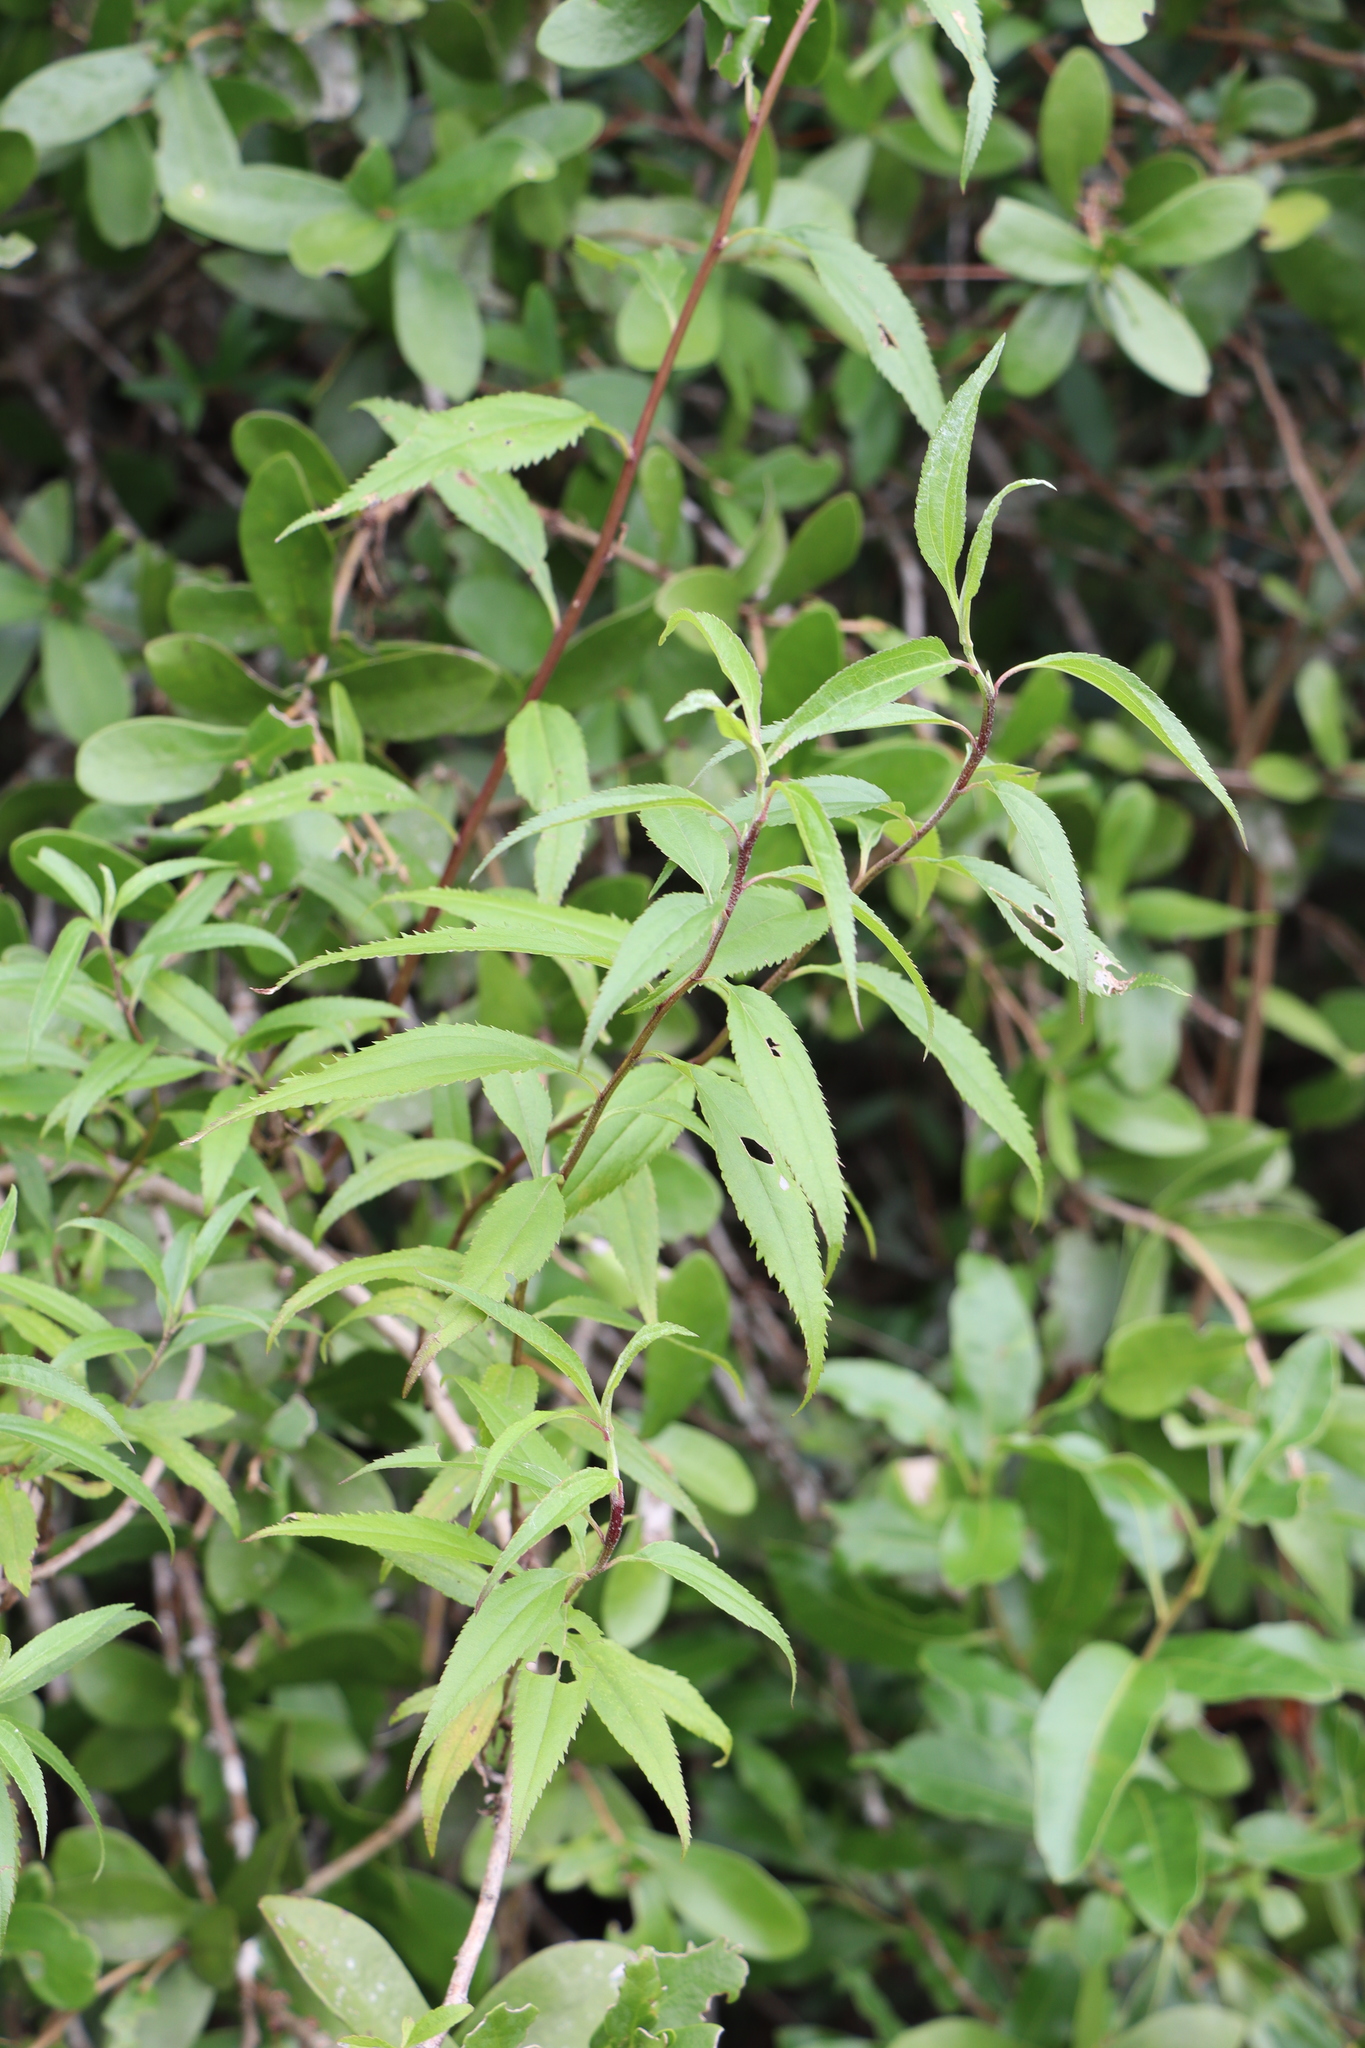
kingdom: Plantae
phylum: Tracheophyta
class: Magnoliopsida
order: Asterales
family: Asteraceae
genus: Baccharis
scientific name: Baccharis oxyodonta
